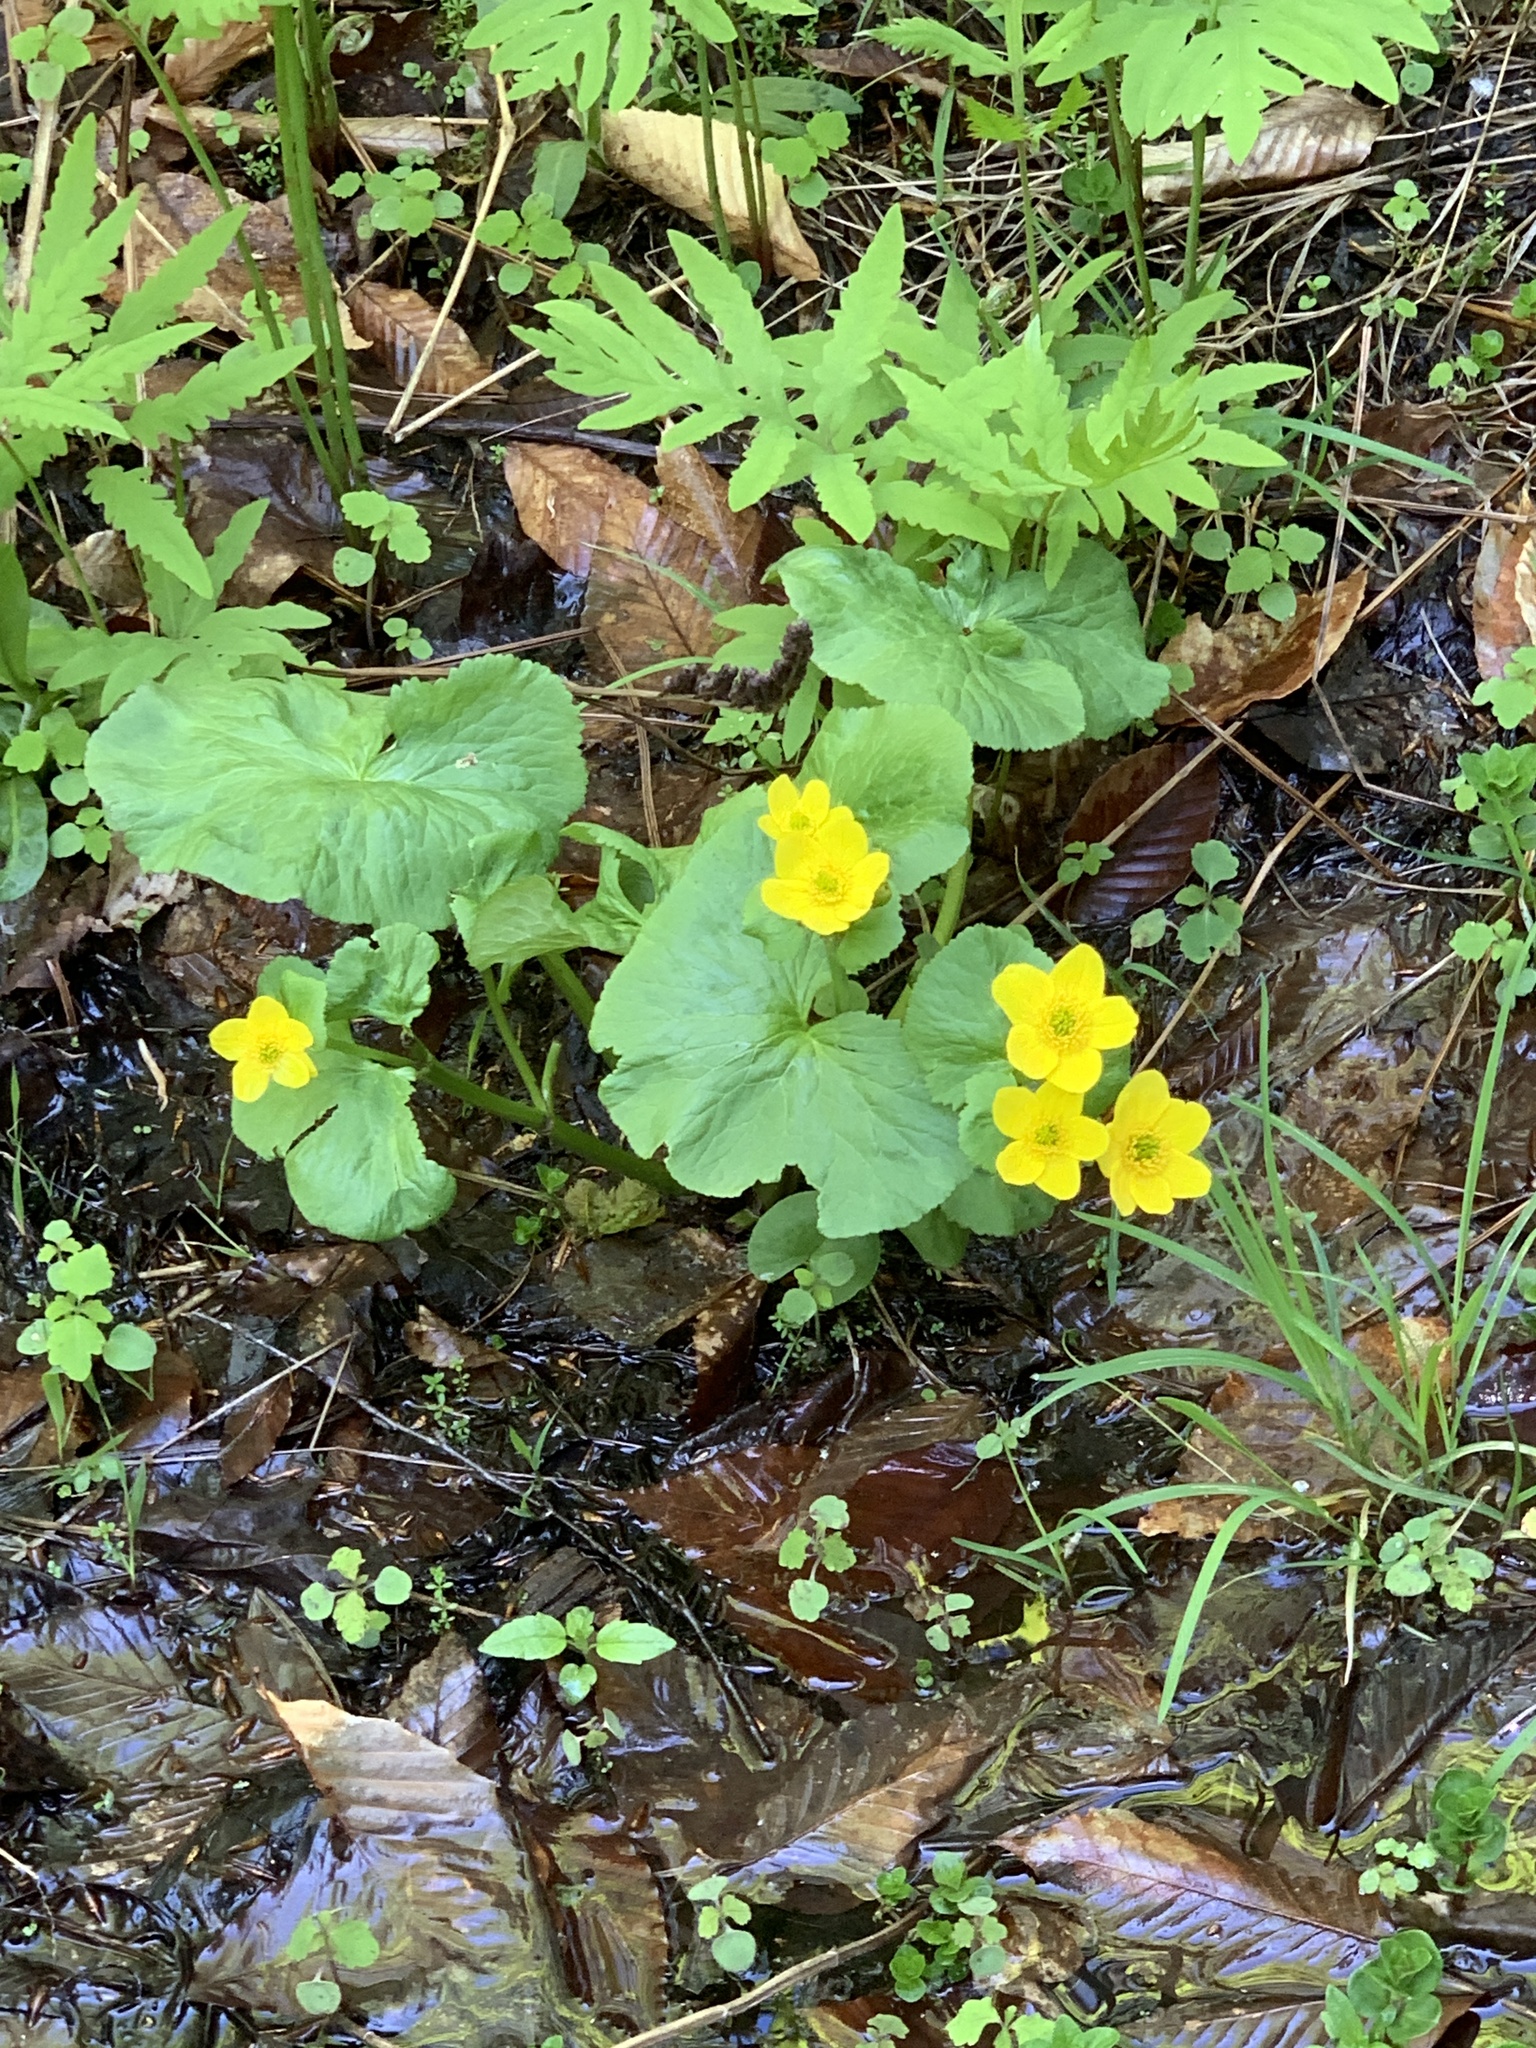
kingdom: Plantae
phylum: Tracheophyta
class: Magnoliopsida
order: Ranunculales
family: Ranunculaceae
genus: Caltha
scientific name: Caltha palustris
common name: Marsh marigold
